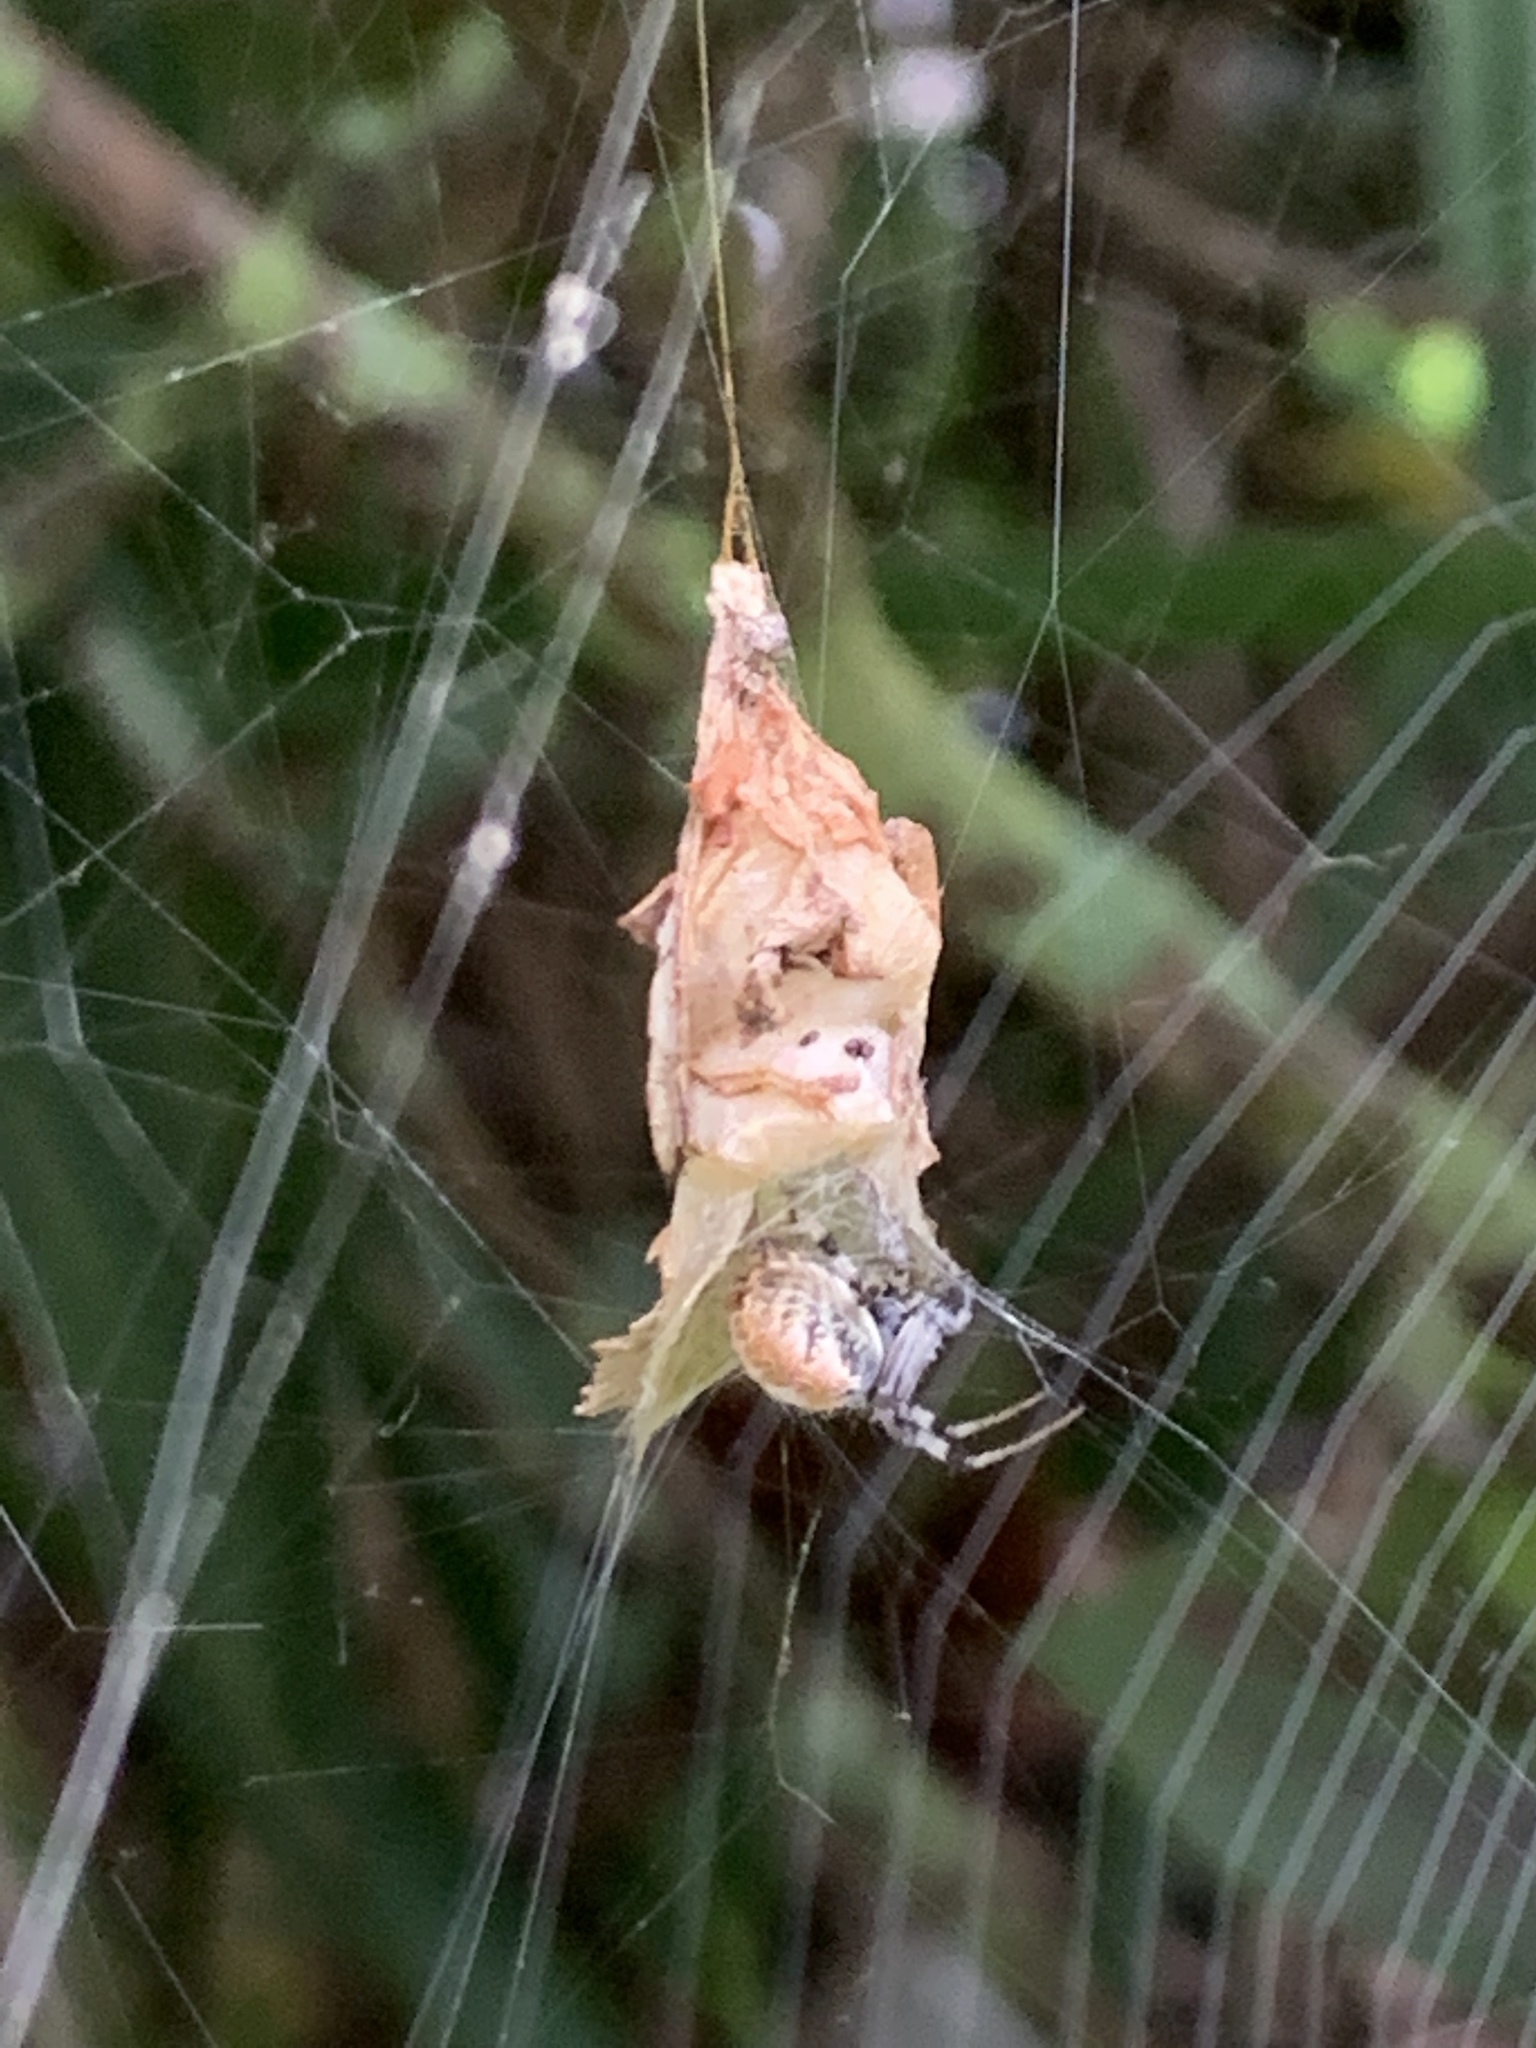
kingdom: Animalia
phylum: Arthropoda
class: Arachnida
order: Araneae
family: Araneidae
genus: Metepeira
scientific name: Metepeira labyrinthea
